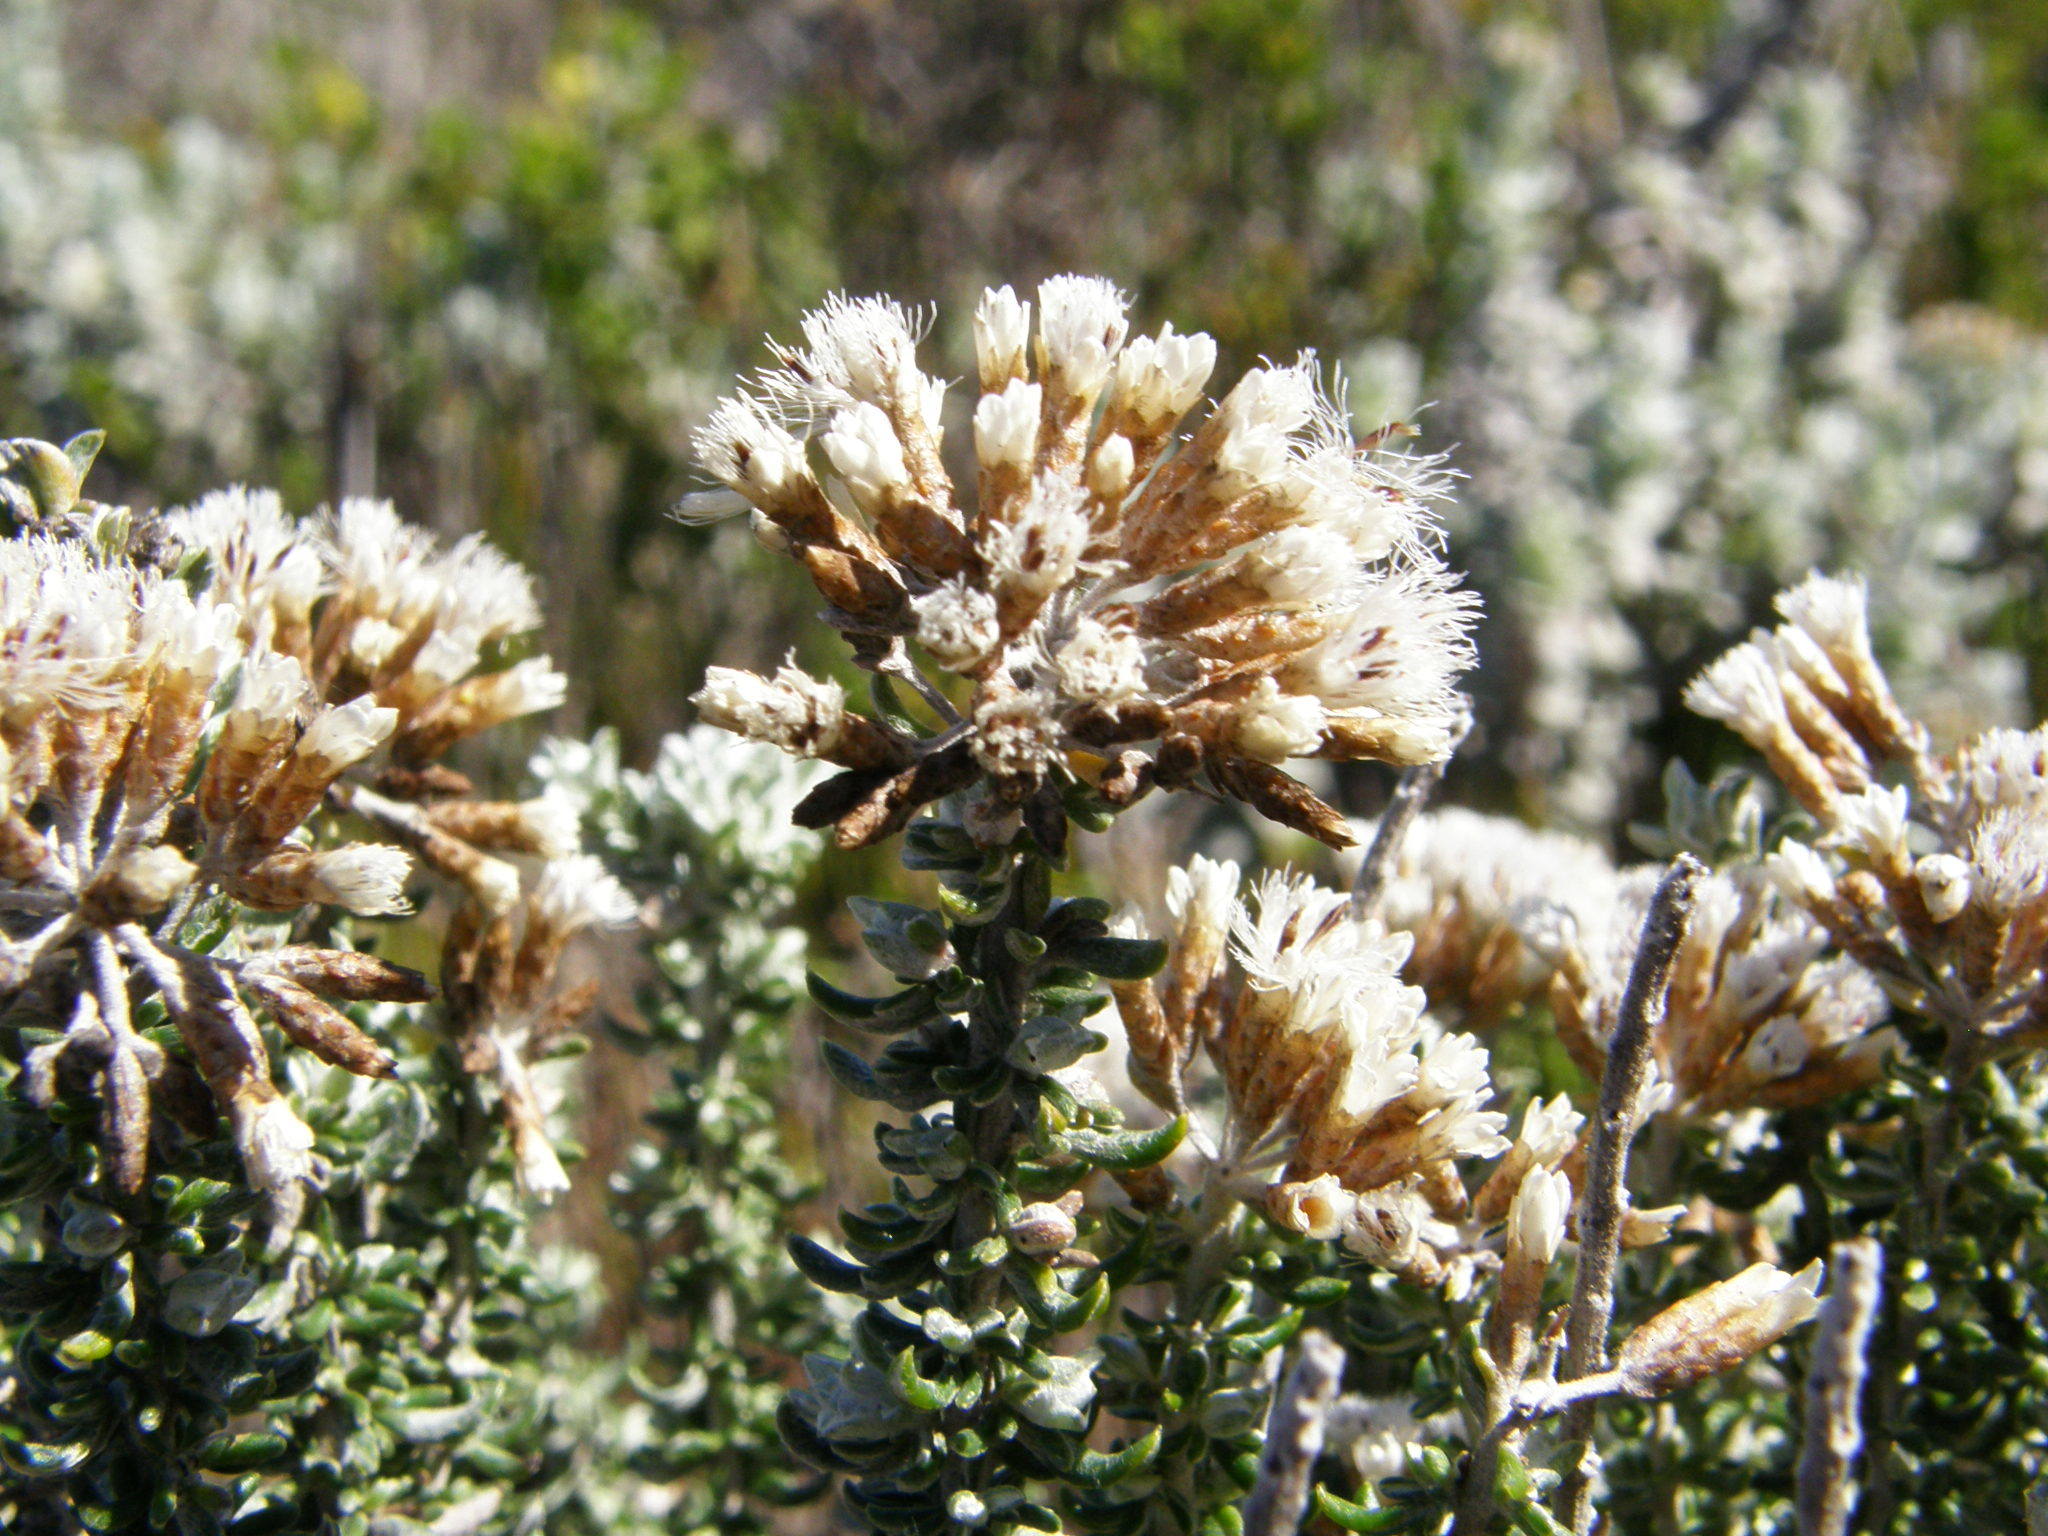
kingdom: Plantae
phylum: Tracheophyta
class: Magnoliopsida
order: Asterales
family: Asteraceae
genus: Metalasia
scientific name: Metalasia muricata
